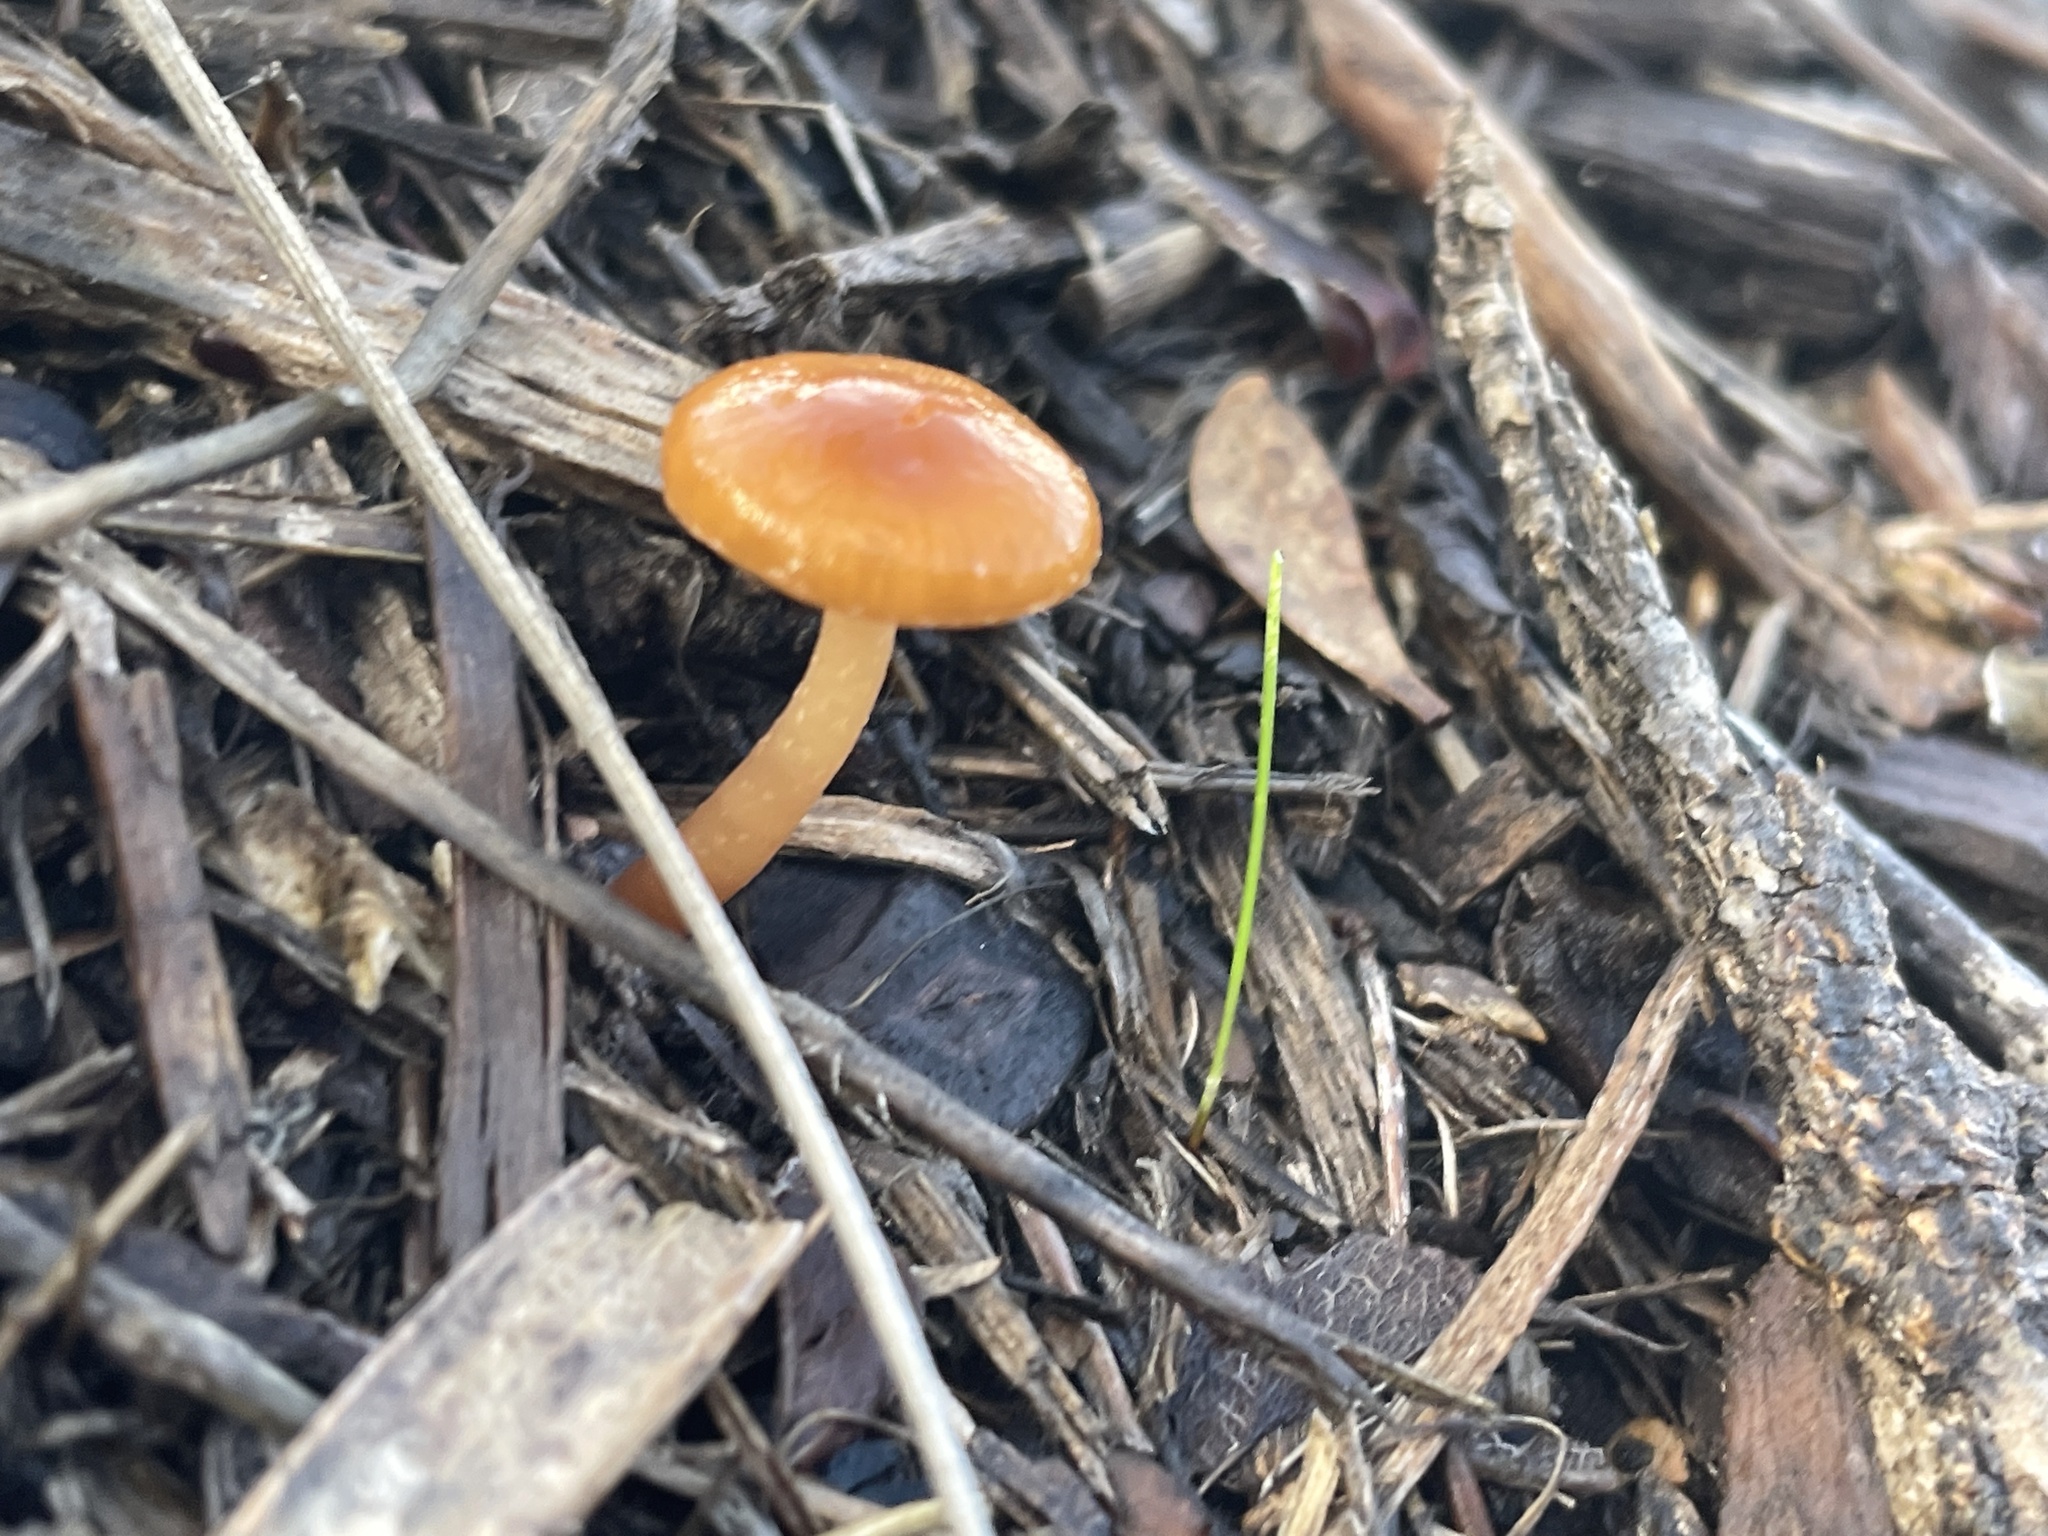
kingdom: Fungi
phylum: Basidiomycota
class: Agaricomycetes
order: Agaricales
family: Tubariaceae
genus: Tubaria
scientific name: Tubaria furfuracea
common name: Scurfy twiglet
